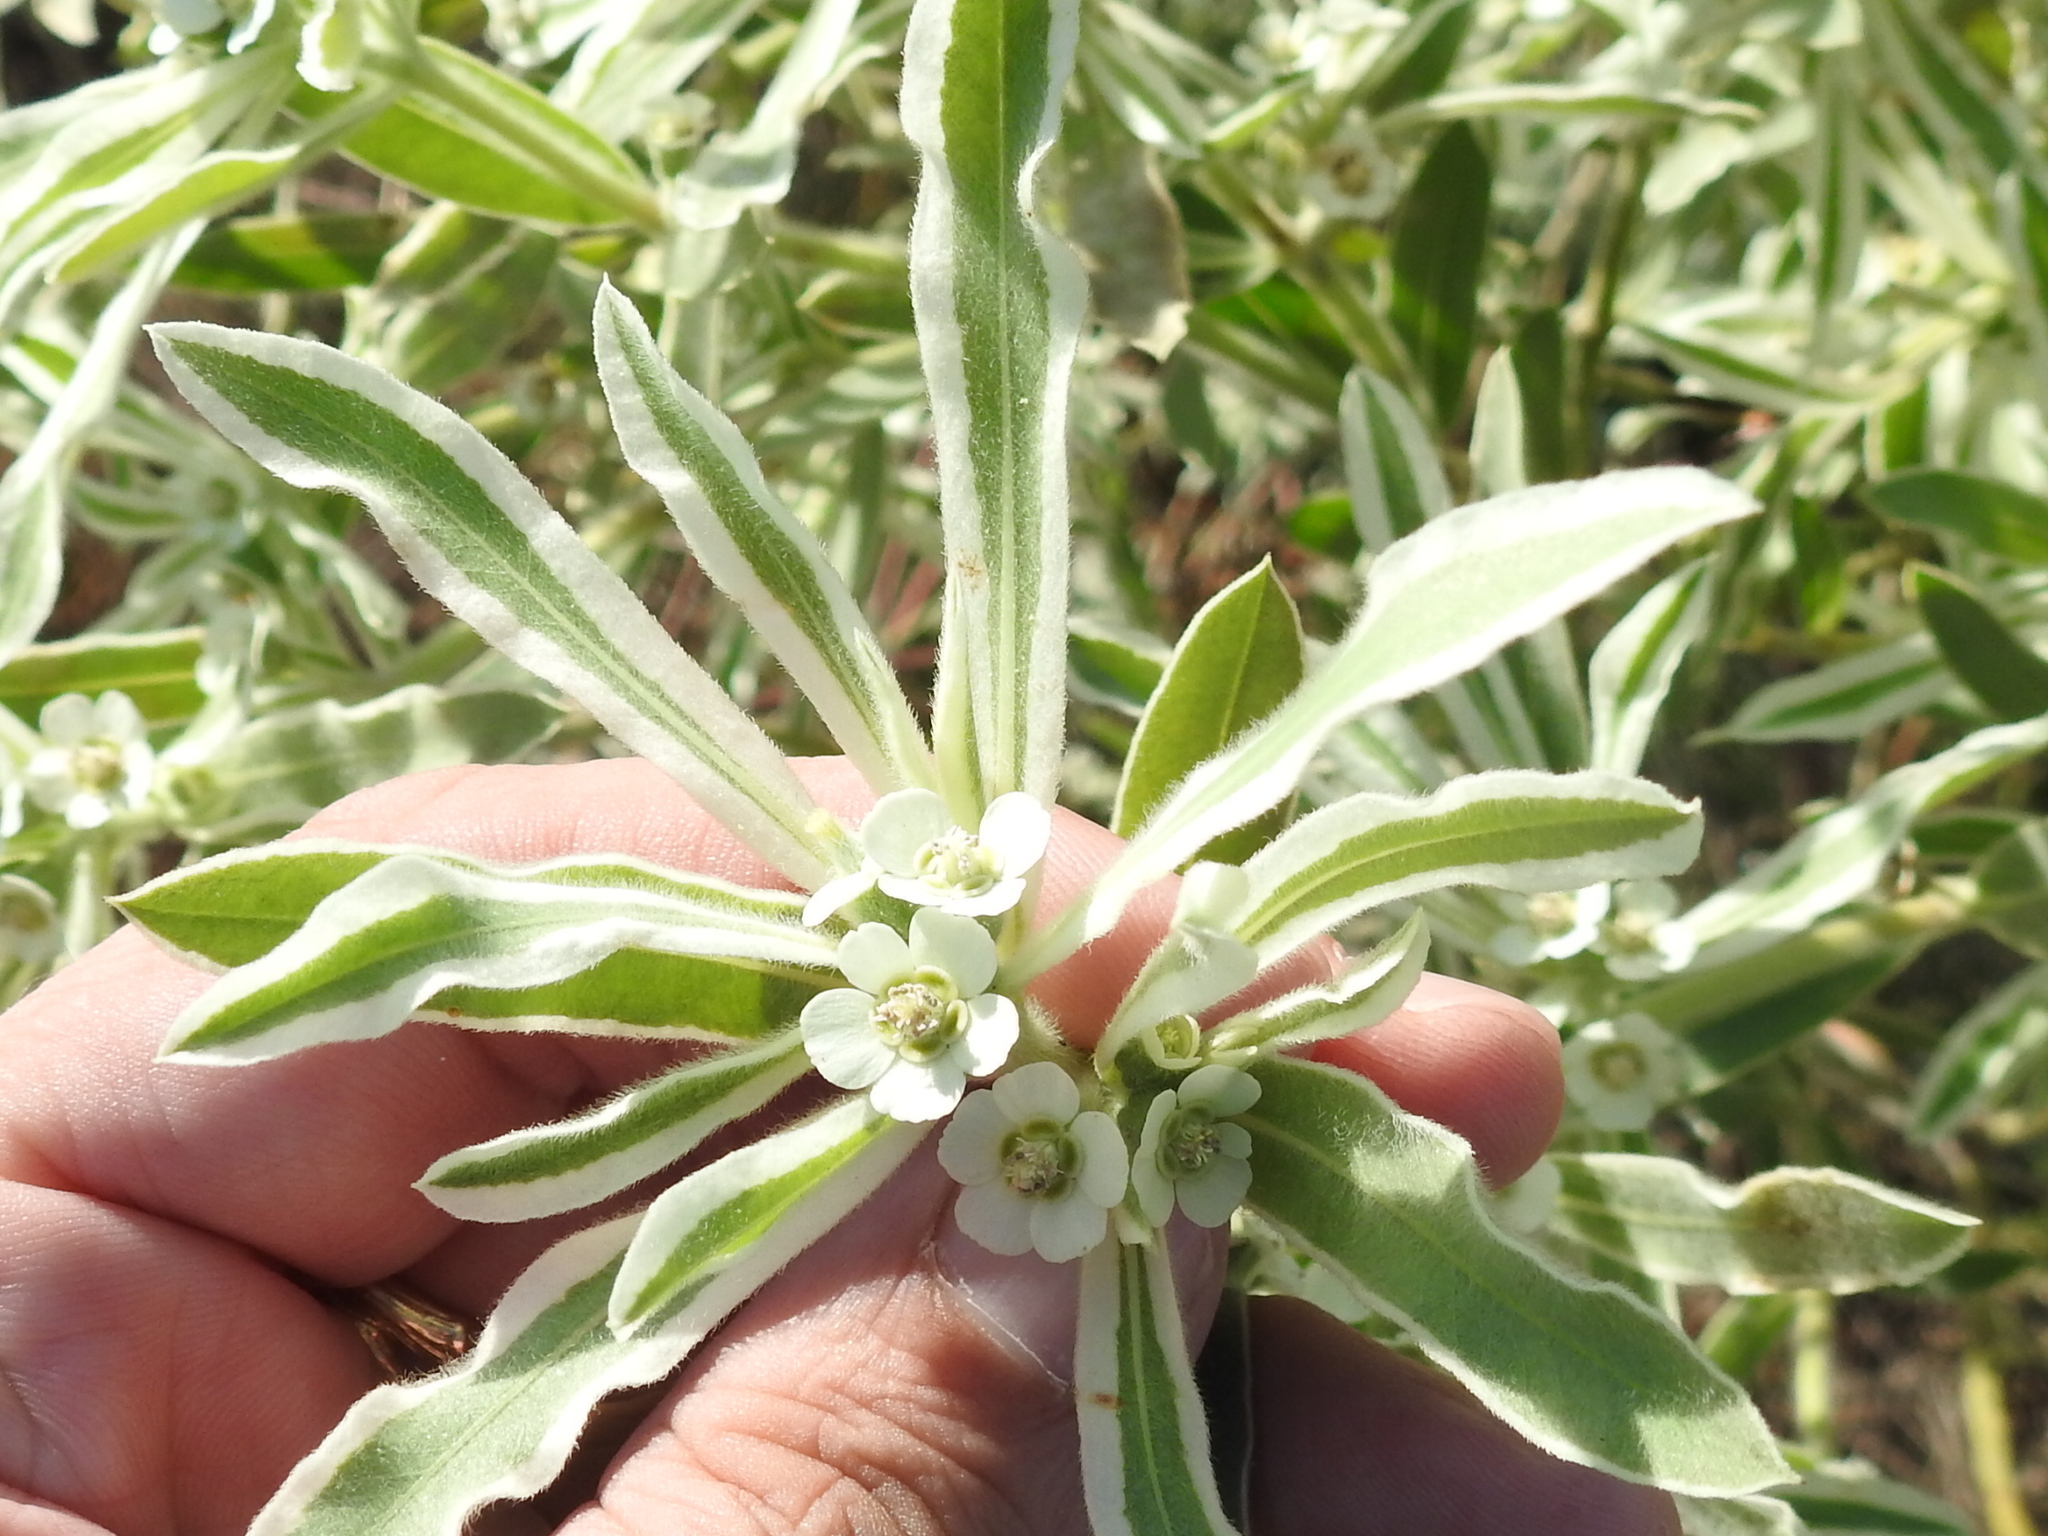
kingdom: Plantae
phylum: Tracheophyta
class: Magnoliopsida
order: Malpighiales
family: Euphorbiaceae
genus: Euphorbia
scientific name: Euphorbia bicolor
